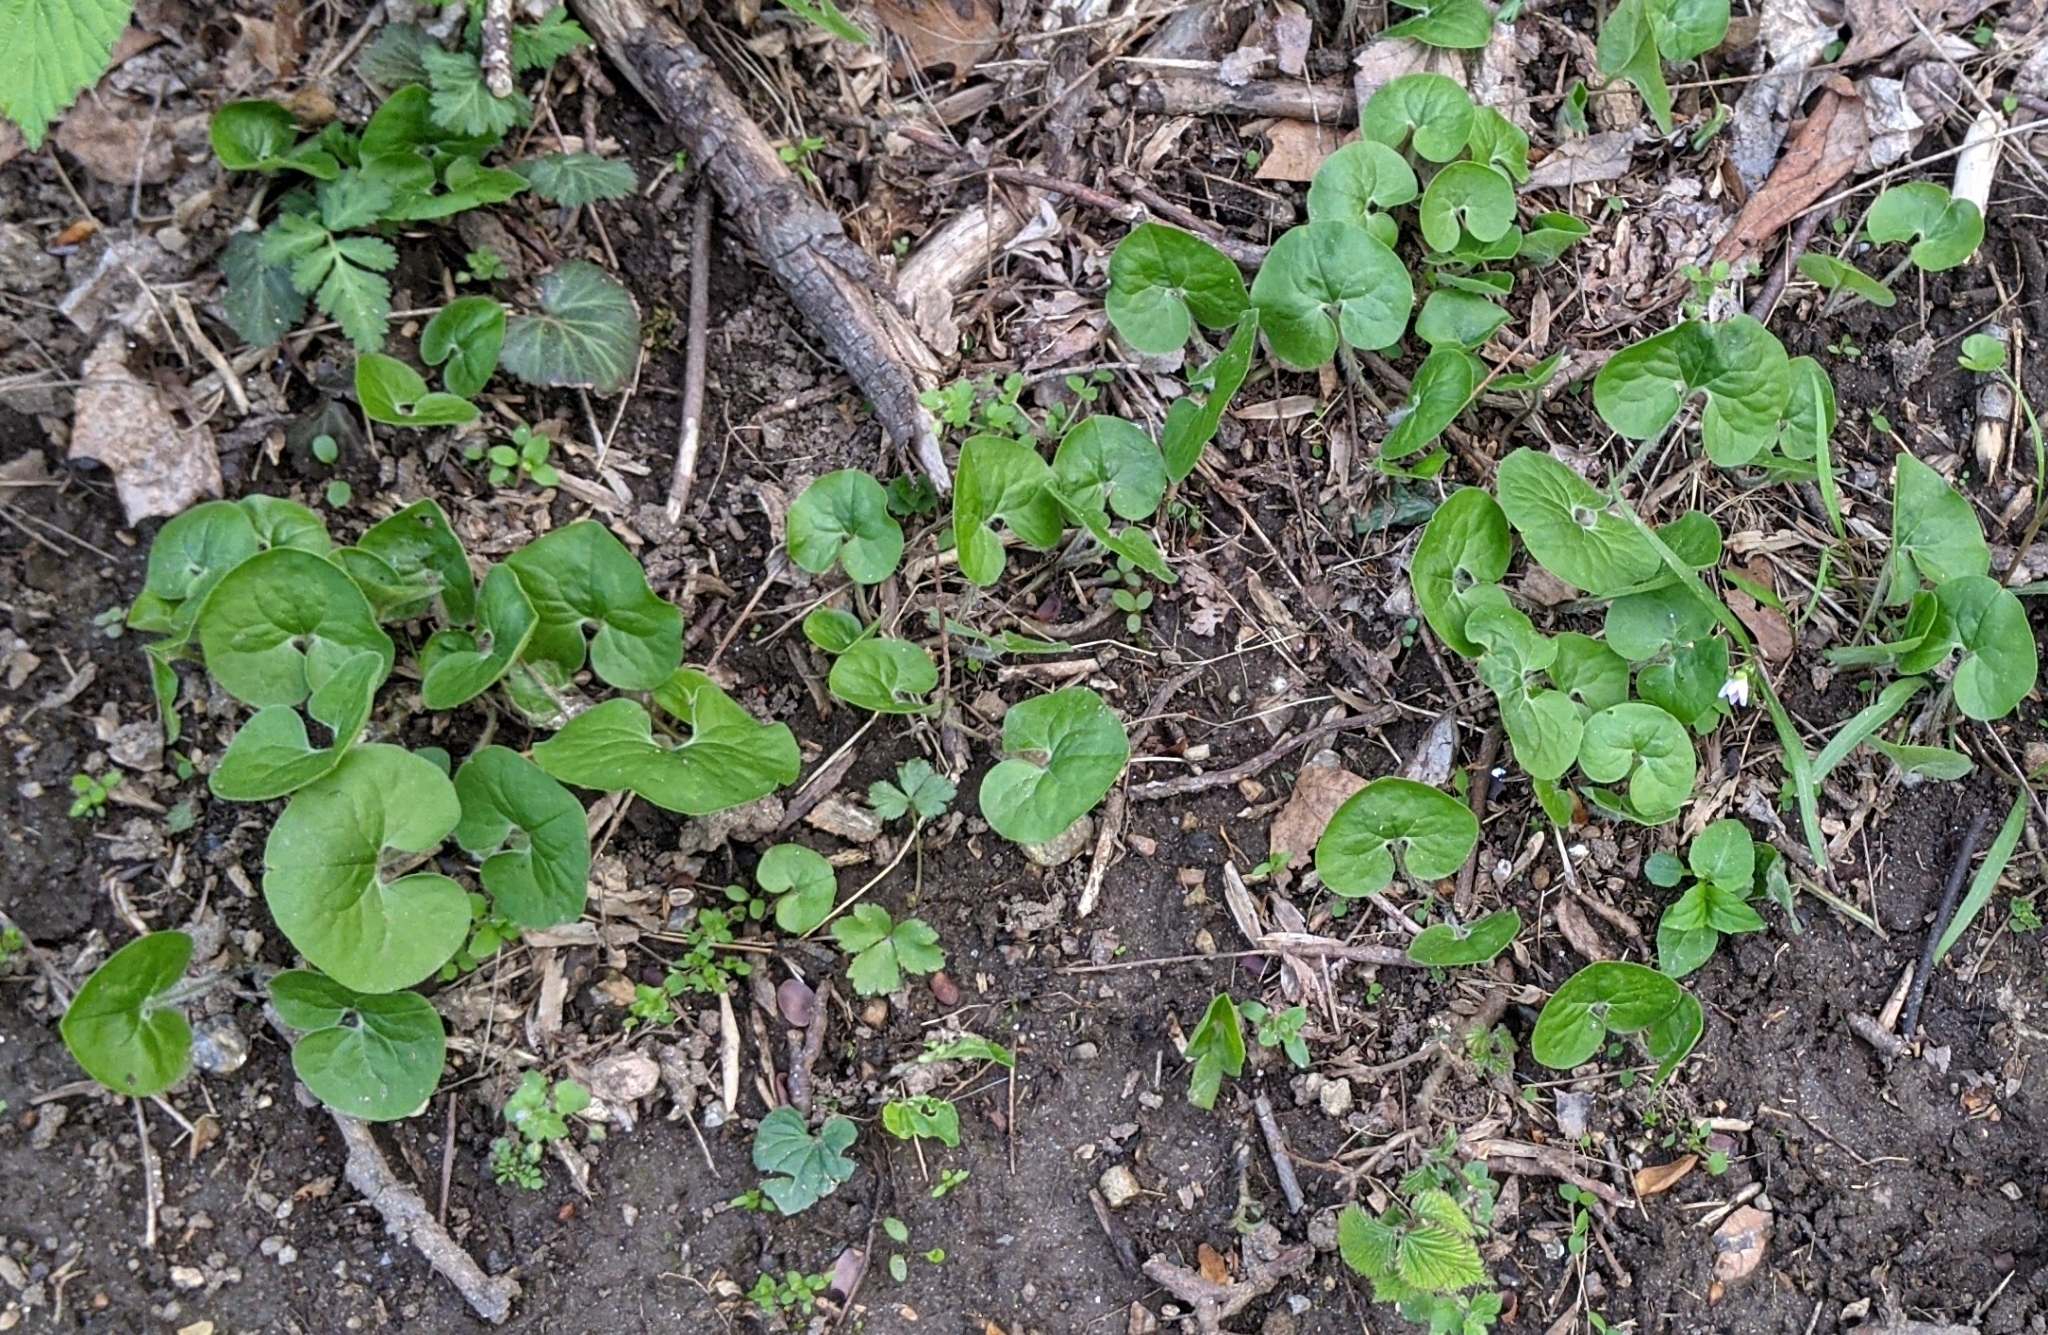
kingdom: Plantae
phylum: Tracheophyta
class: Magnoliopsida
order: Piperales
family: Aristolochiaceae
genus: Asarum
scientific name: Asarum canadense
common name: Wild ginger
